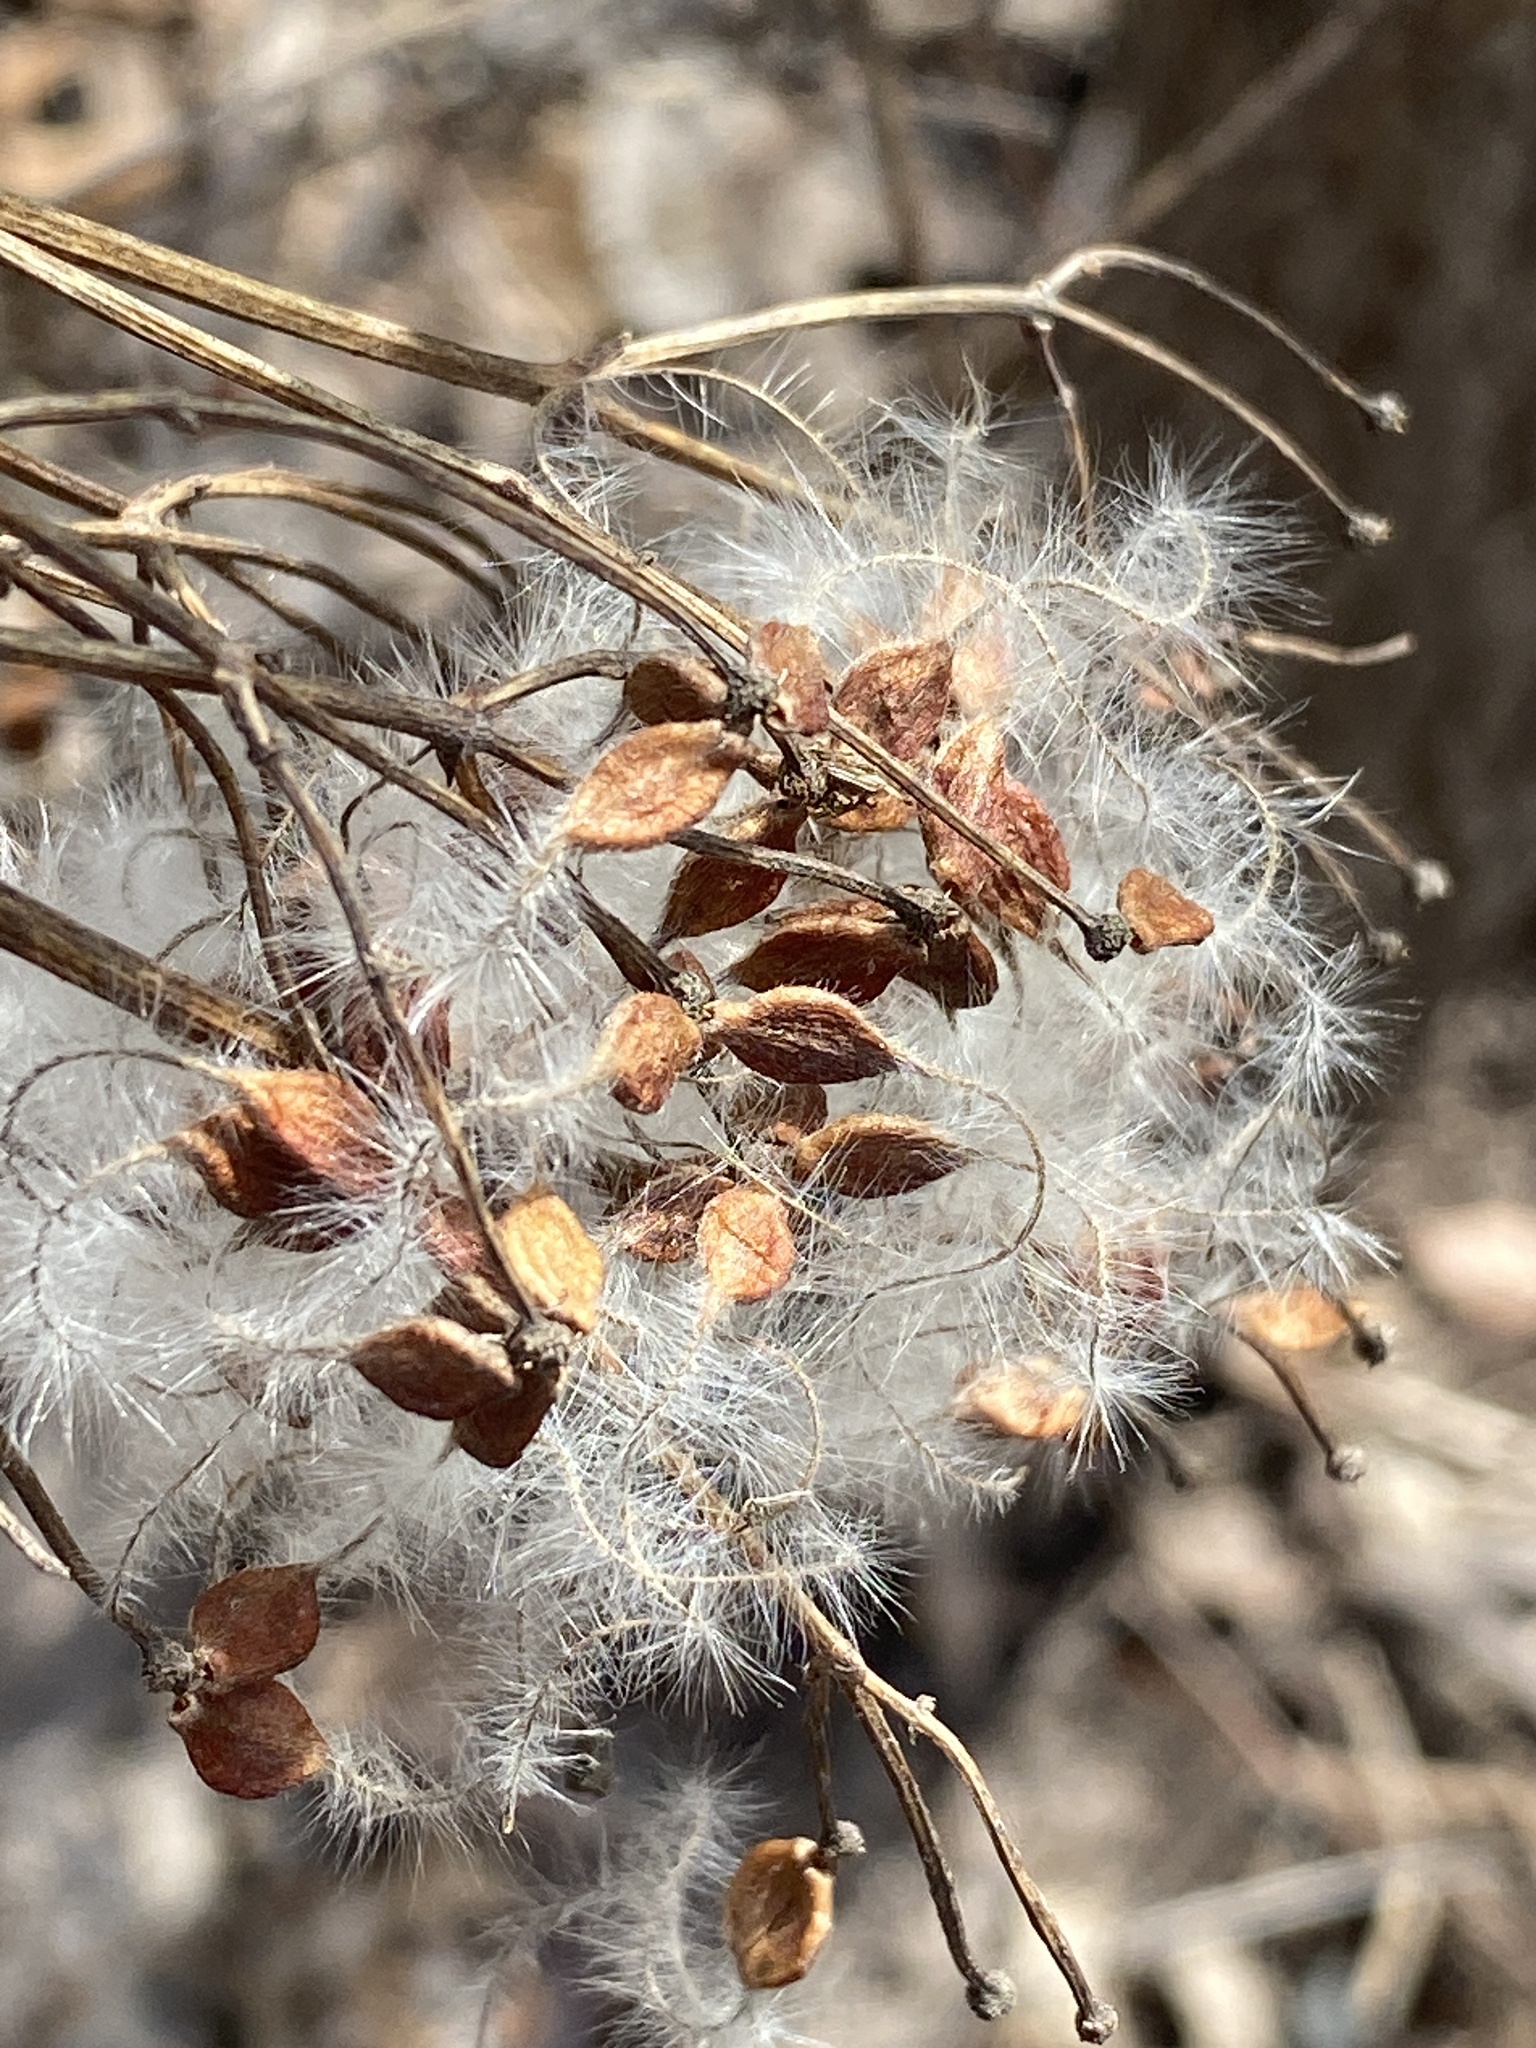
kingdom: Plantae
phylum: Tracheophyta
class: Magnoliopsida
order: Ranunculales
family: Ranunculaceae
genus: Clematis
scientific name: Clematis terniflora
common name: Sweet autumn clematis
